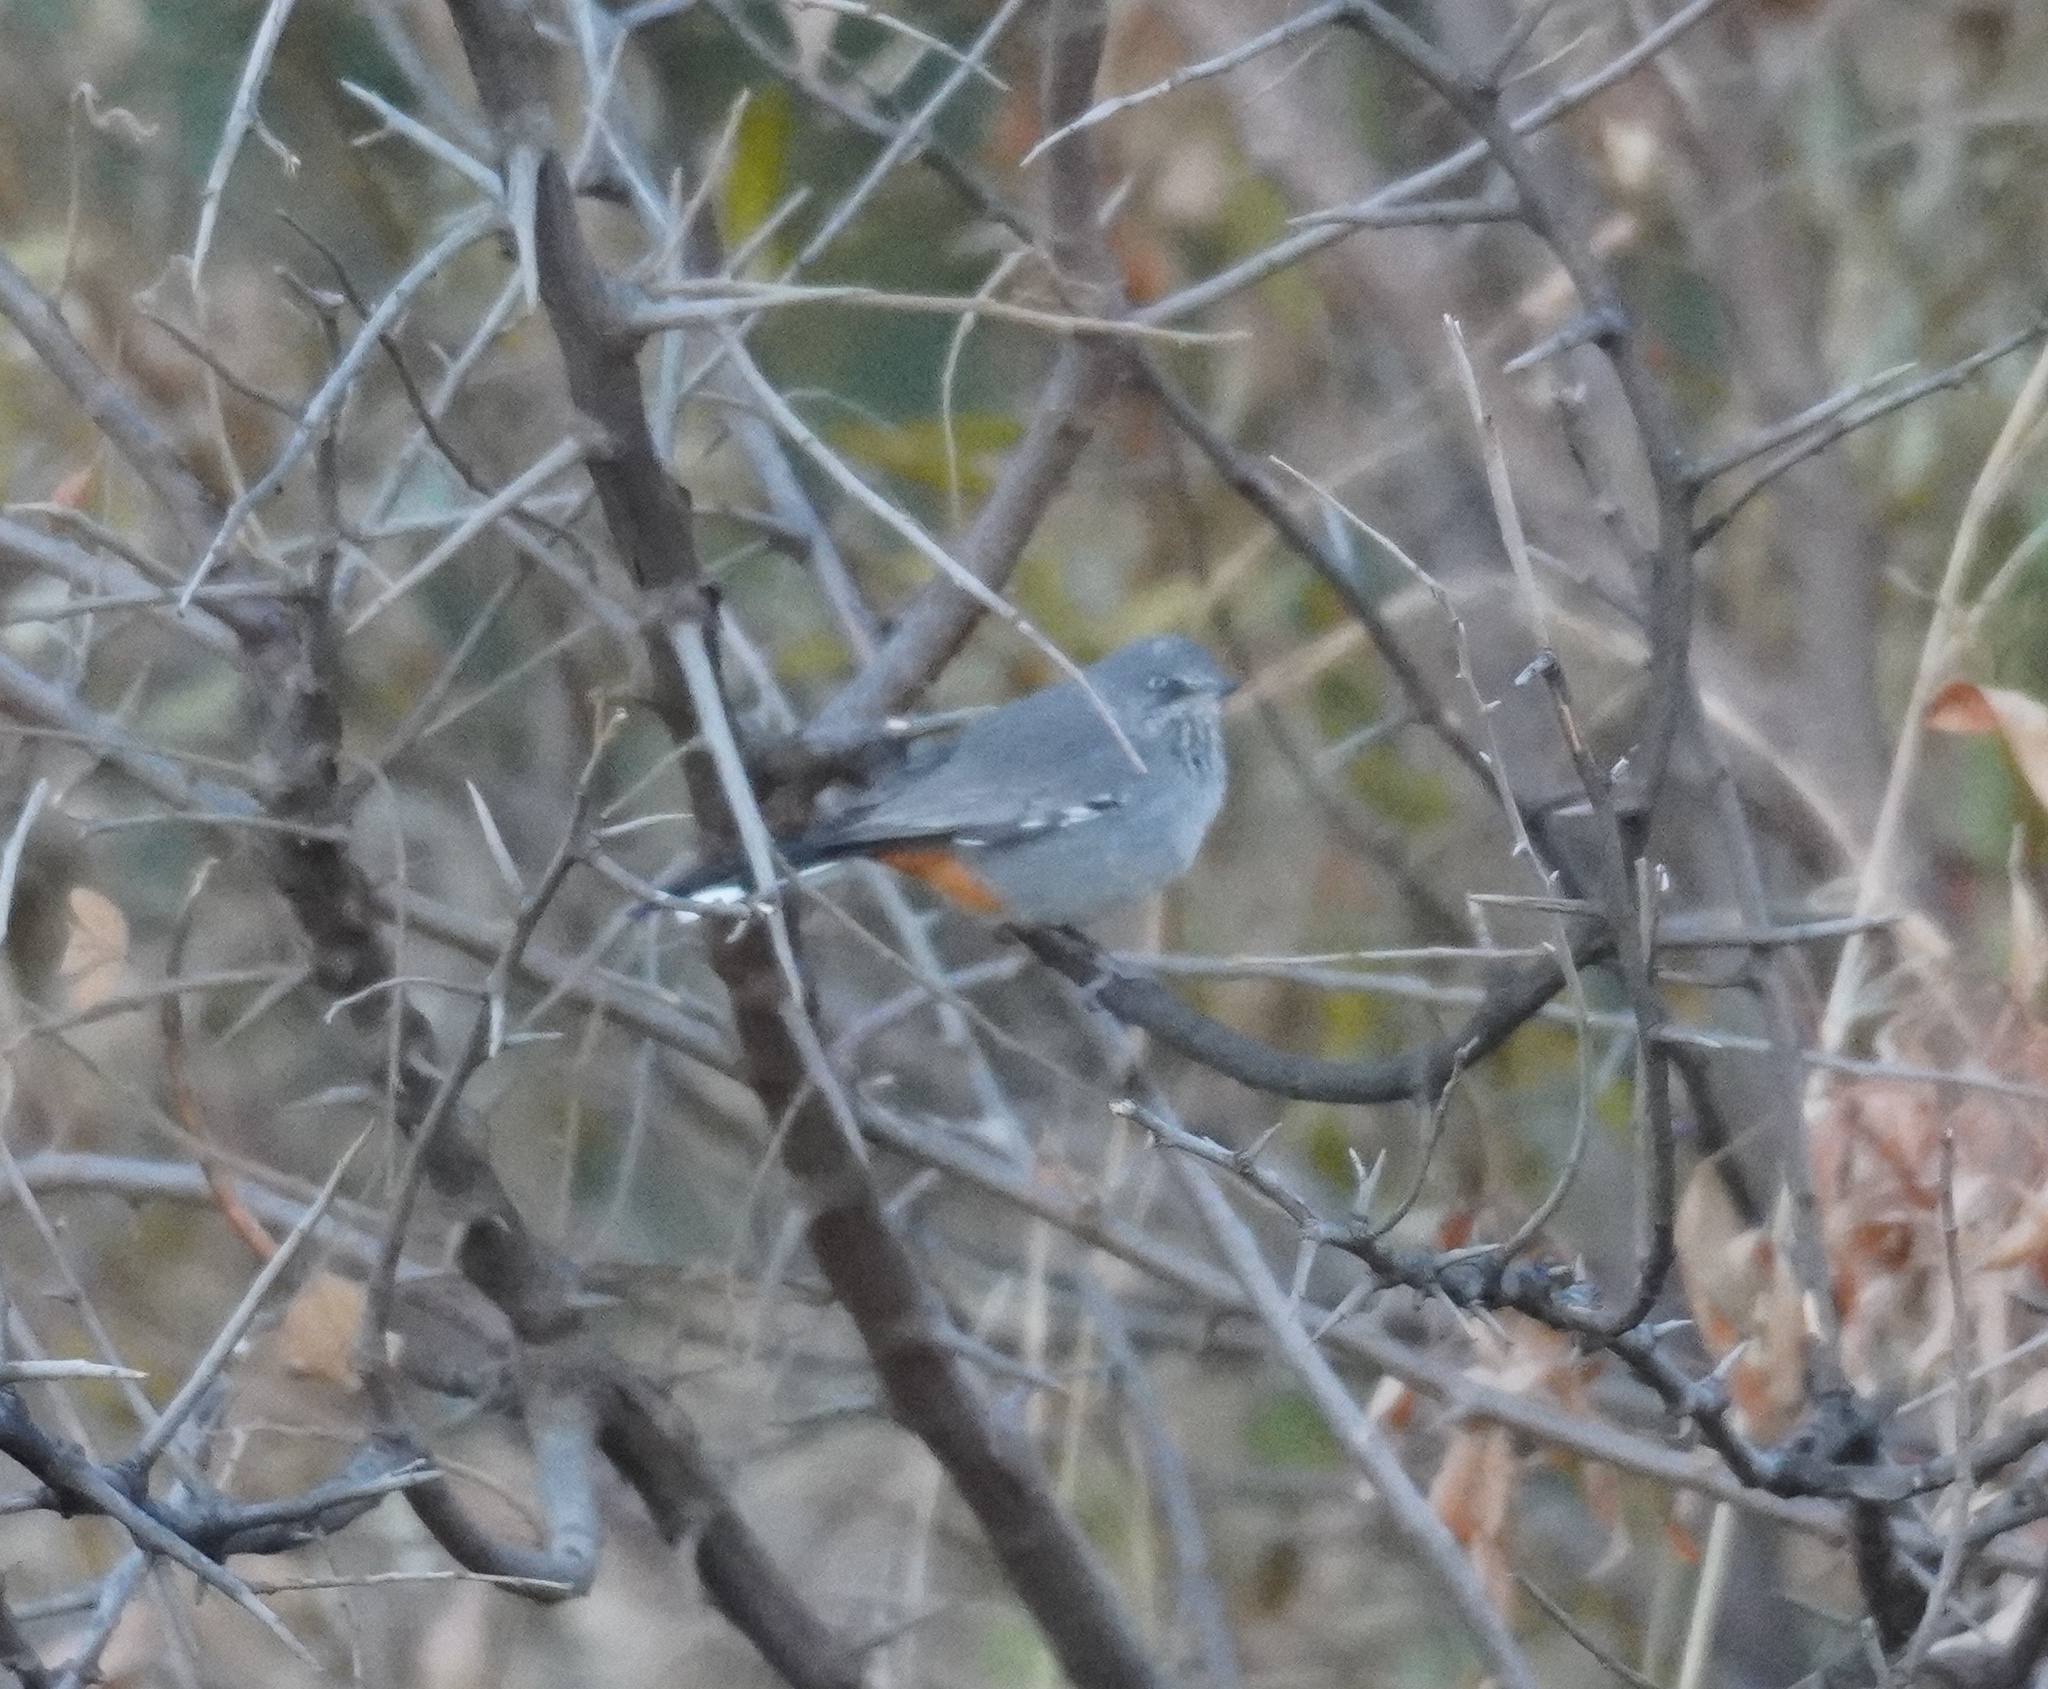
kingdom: Animalia
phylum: Chordata
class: Aves
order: Passeriformes
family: Sylviidae
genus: Curruca
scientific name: Curruca subcoerulea
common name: Chestnut-vented warbler
